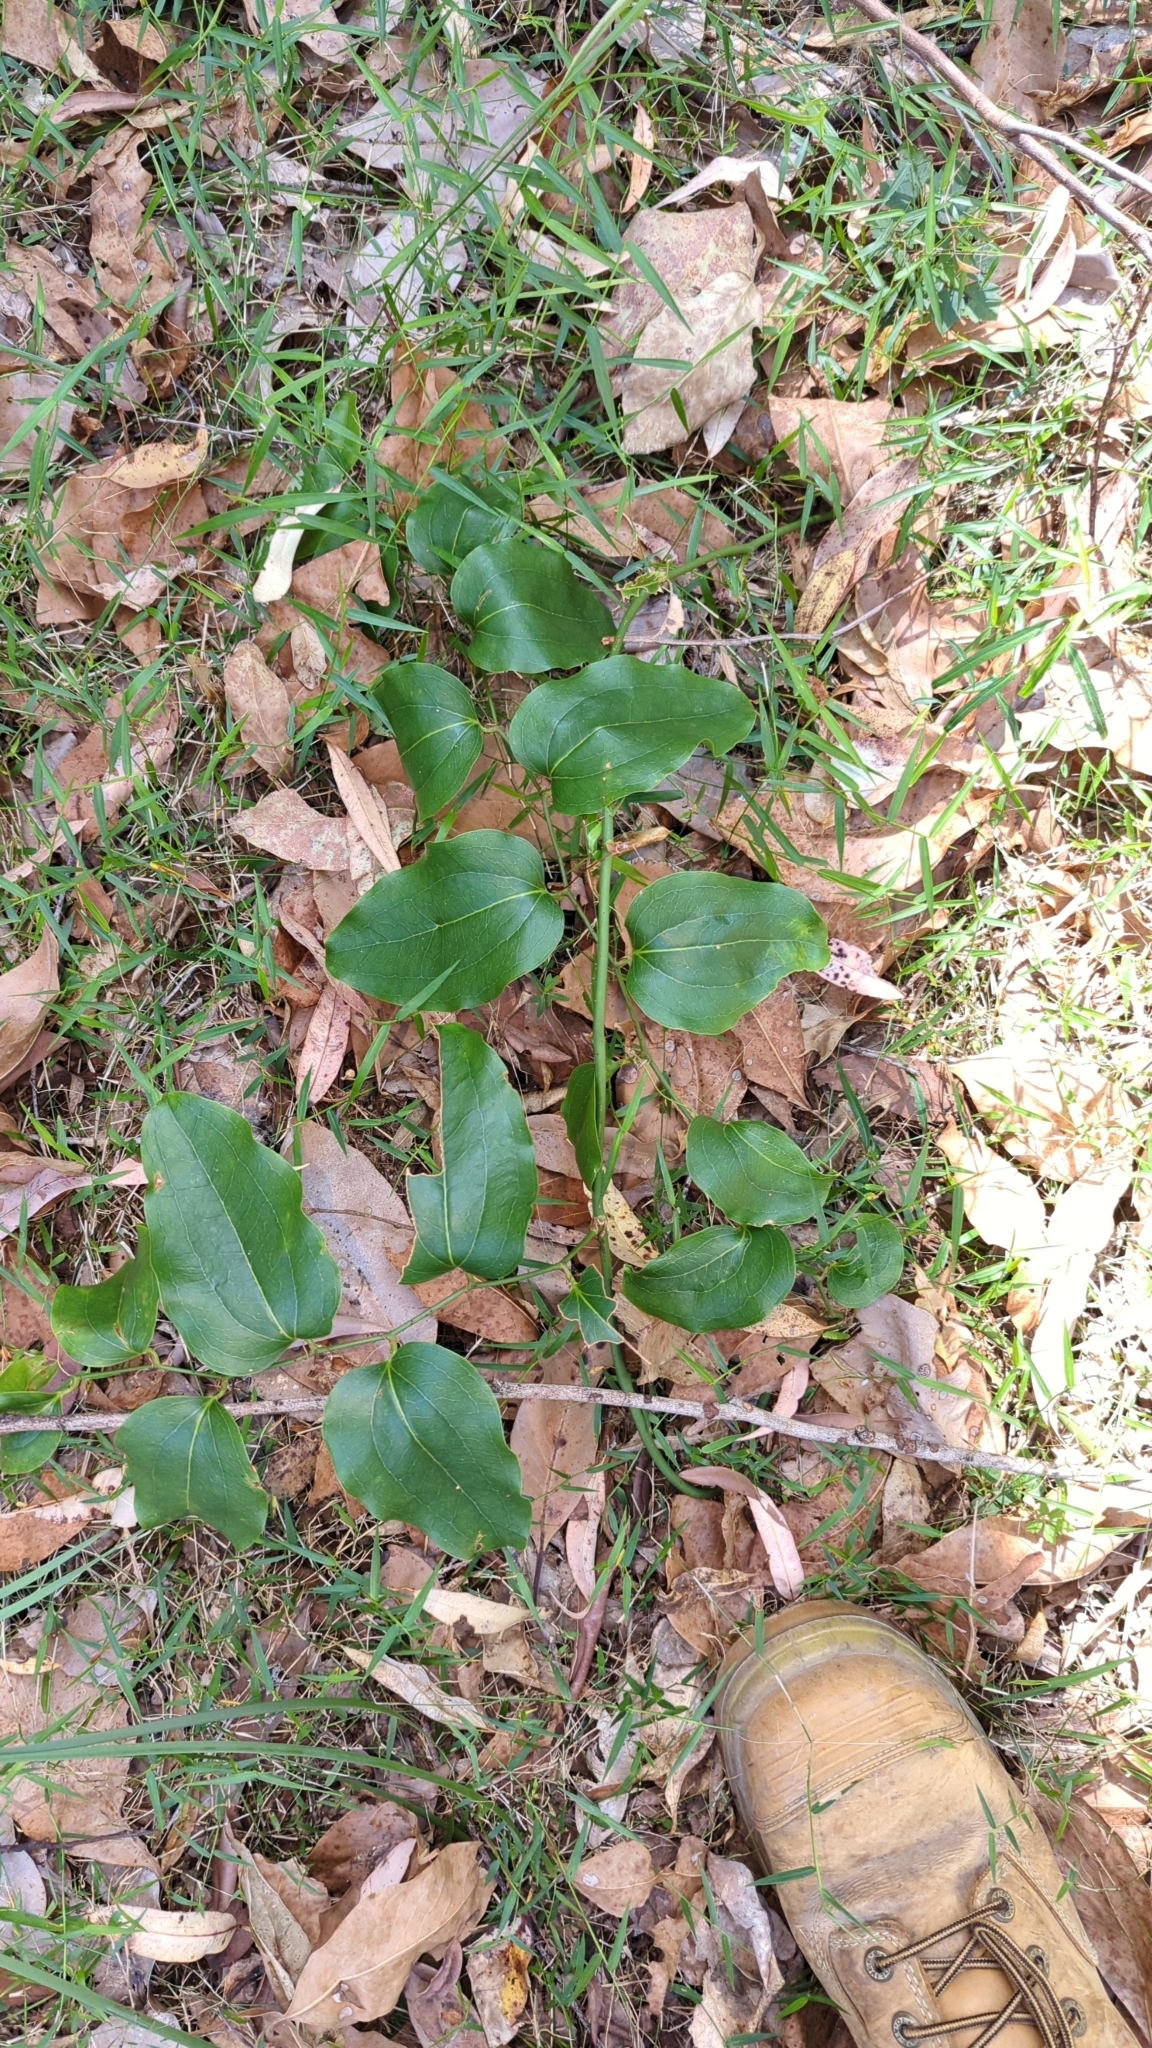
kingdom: Plantae
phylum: Tracheophyta
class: Liliopsida
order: Liliales
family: Smilacaceae
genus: Smilax
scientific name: Smilax australis
